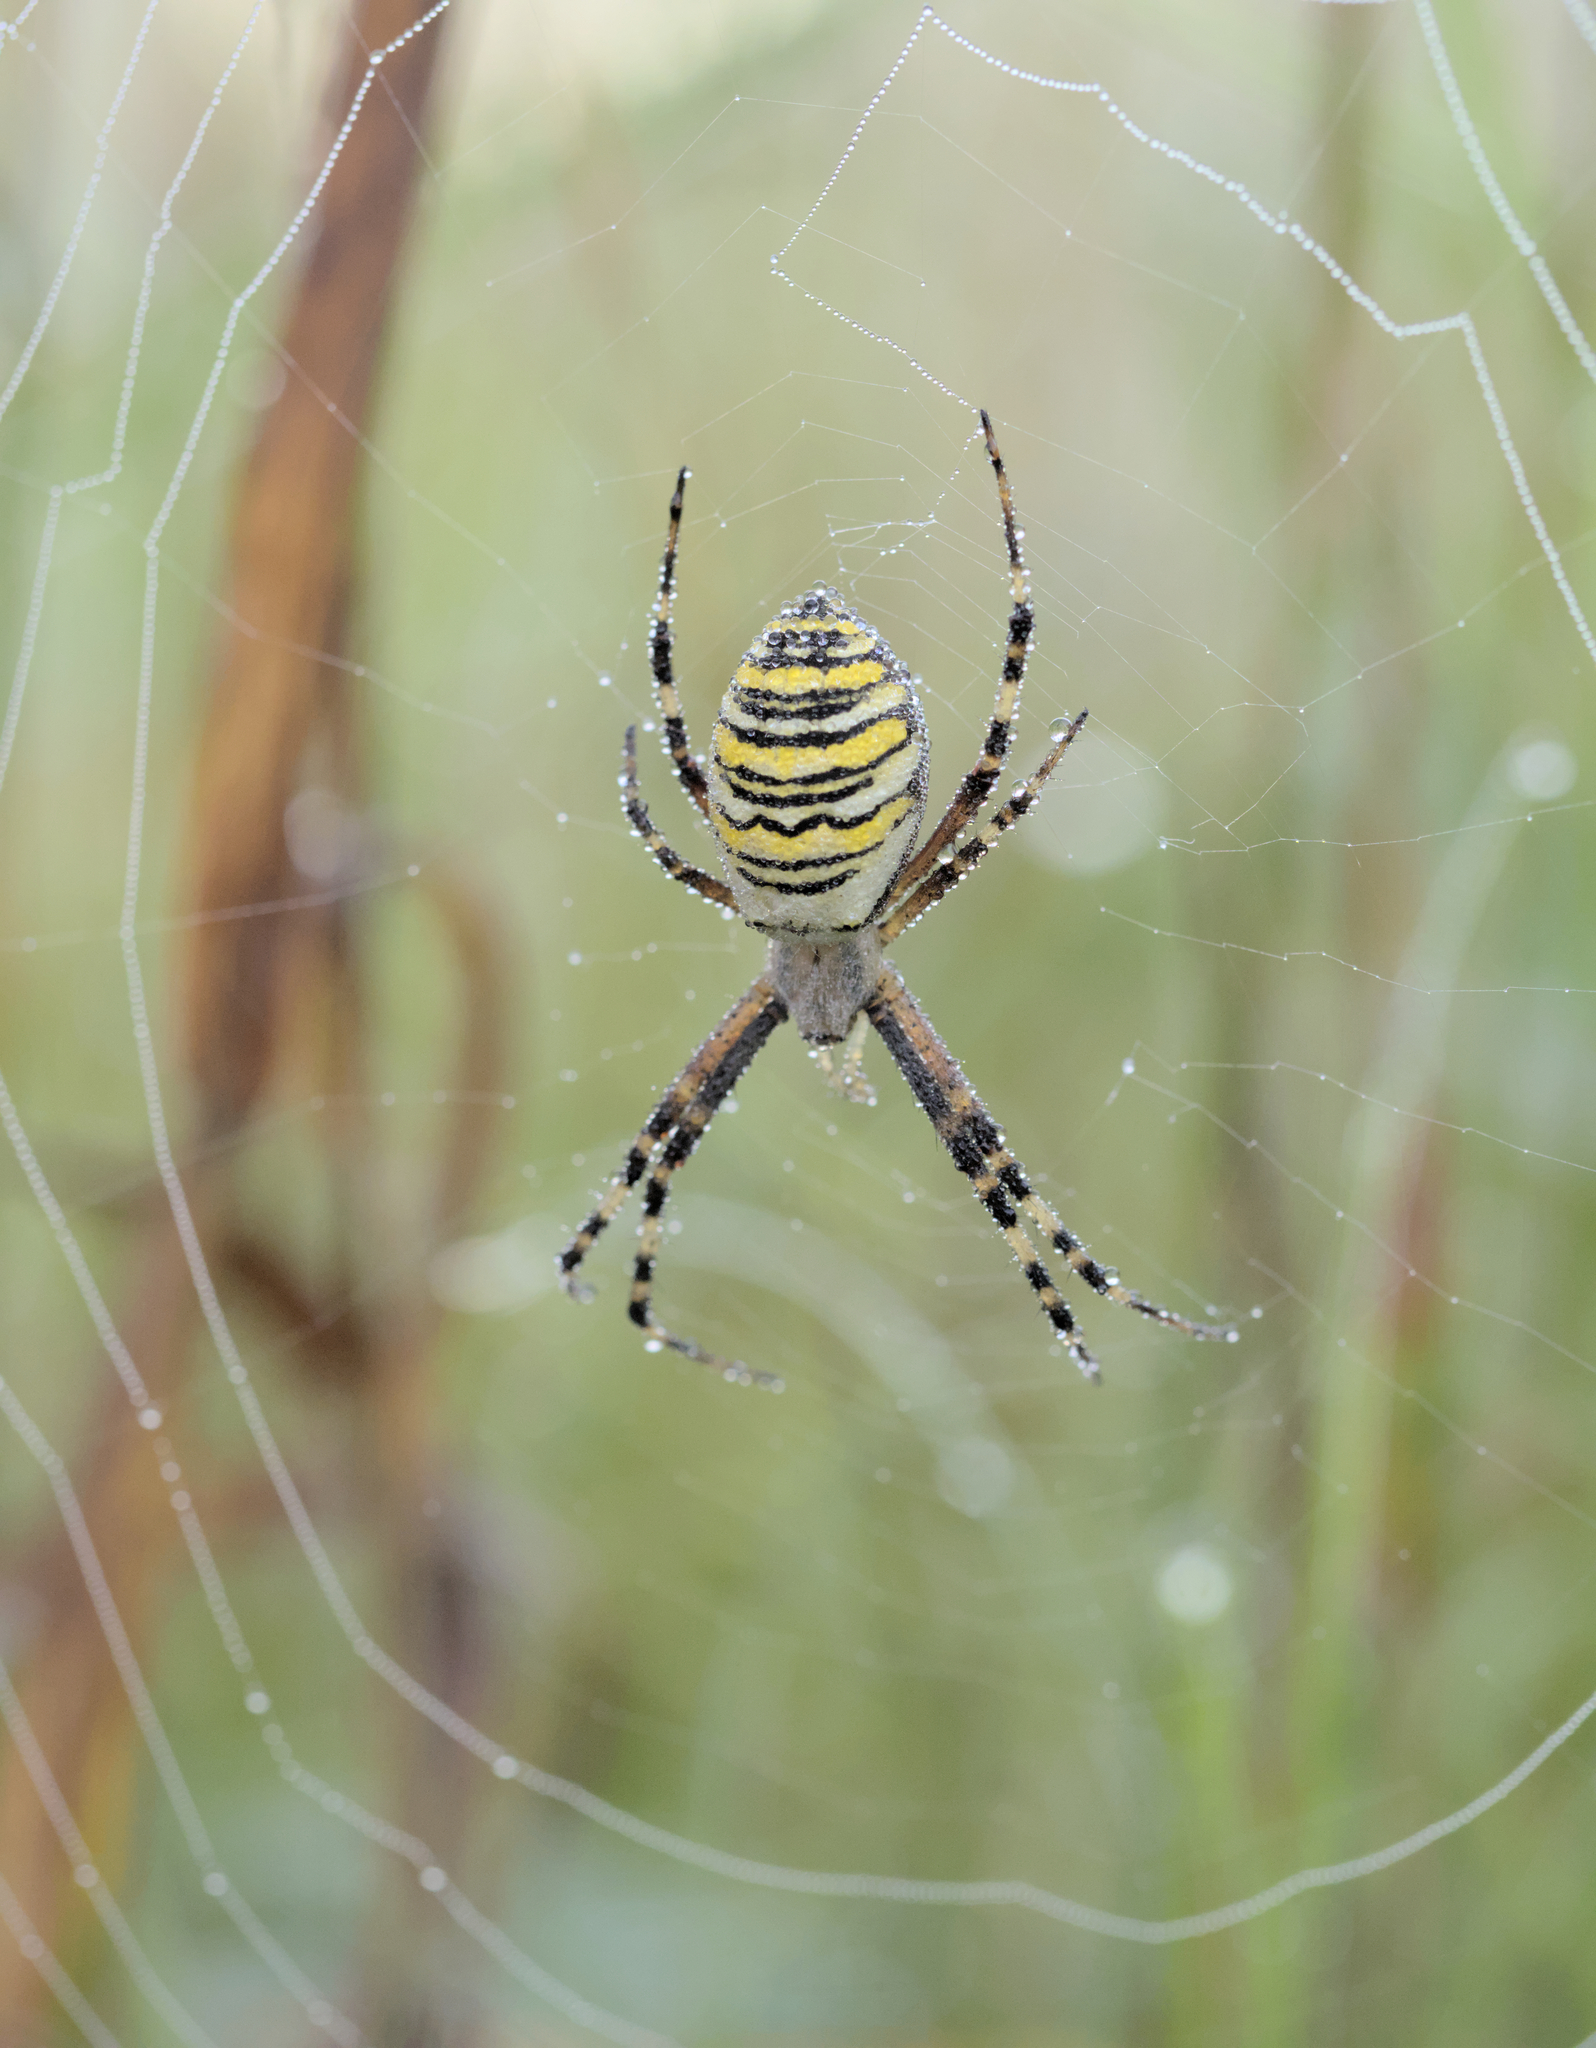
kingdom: Animalia
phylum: Arthropoda
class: Arachnida
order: Araneae
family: Araneidae
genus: Argiope
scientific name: Argiope bruennichi
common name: Wasp spider
